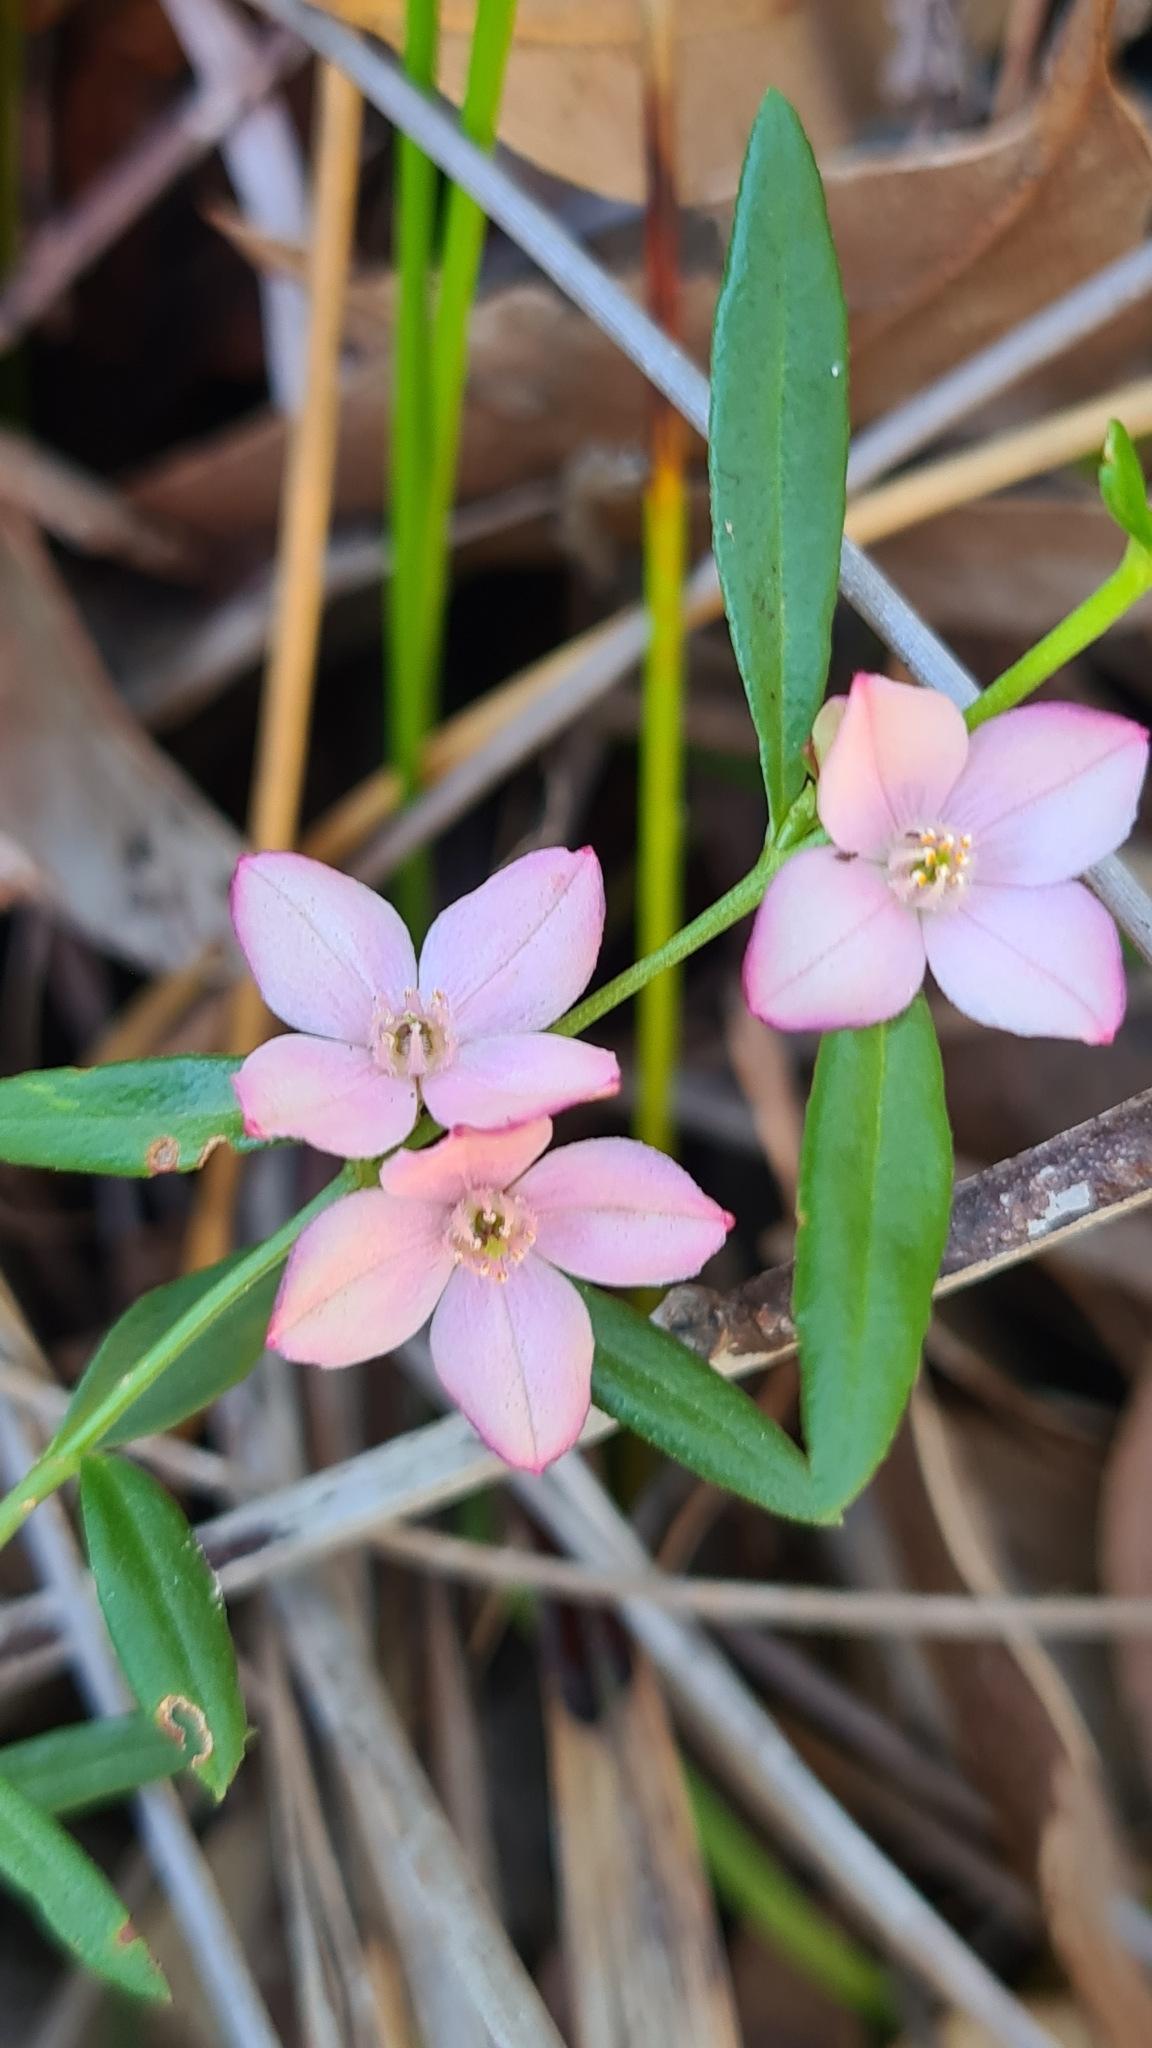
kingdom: Plantae
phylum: Tracheophyta
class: Magnoliopsida
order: Sapindales
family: Rutaceae
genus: Cyanothamnus
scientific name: Cyanothamnus polygalifolius
